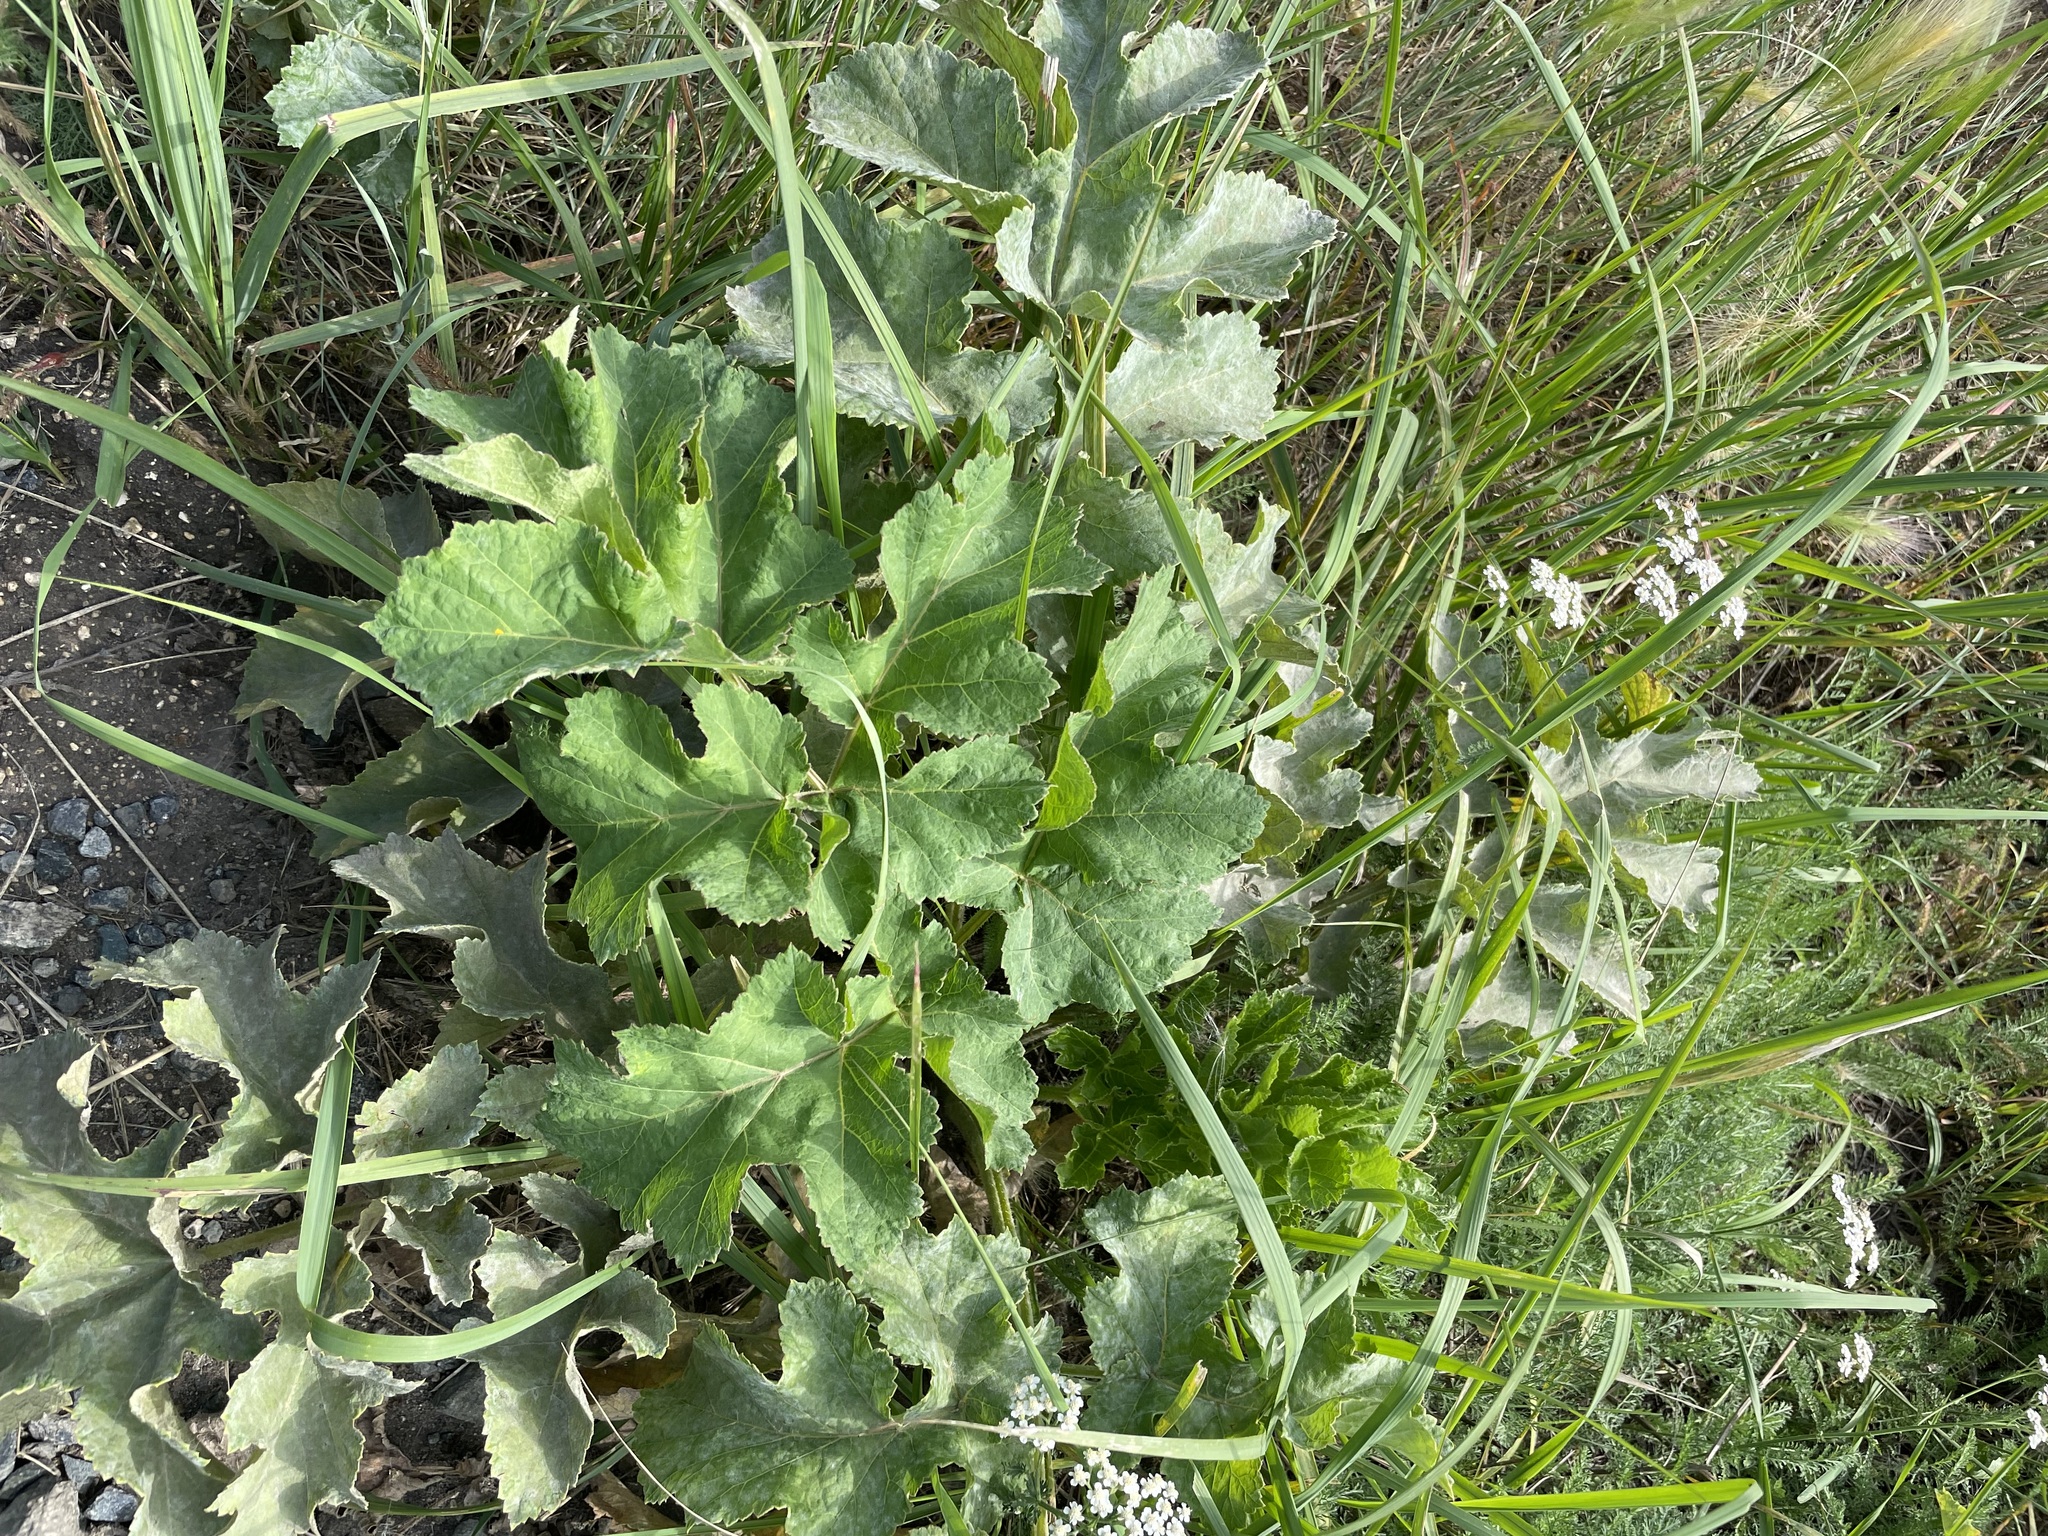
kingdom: Plantae
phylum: Tracheophyta
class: Magnoliopsida
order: Apiales
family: Apiaceae
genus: Heracleum
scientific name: Heracleum sphondylium
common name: Hogweed
